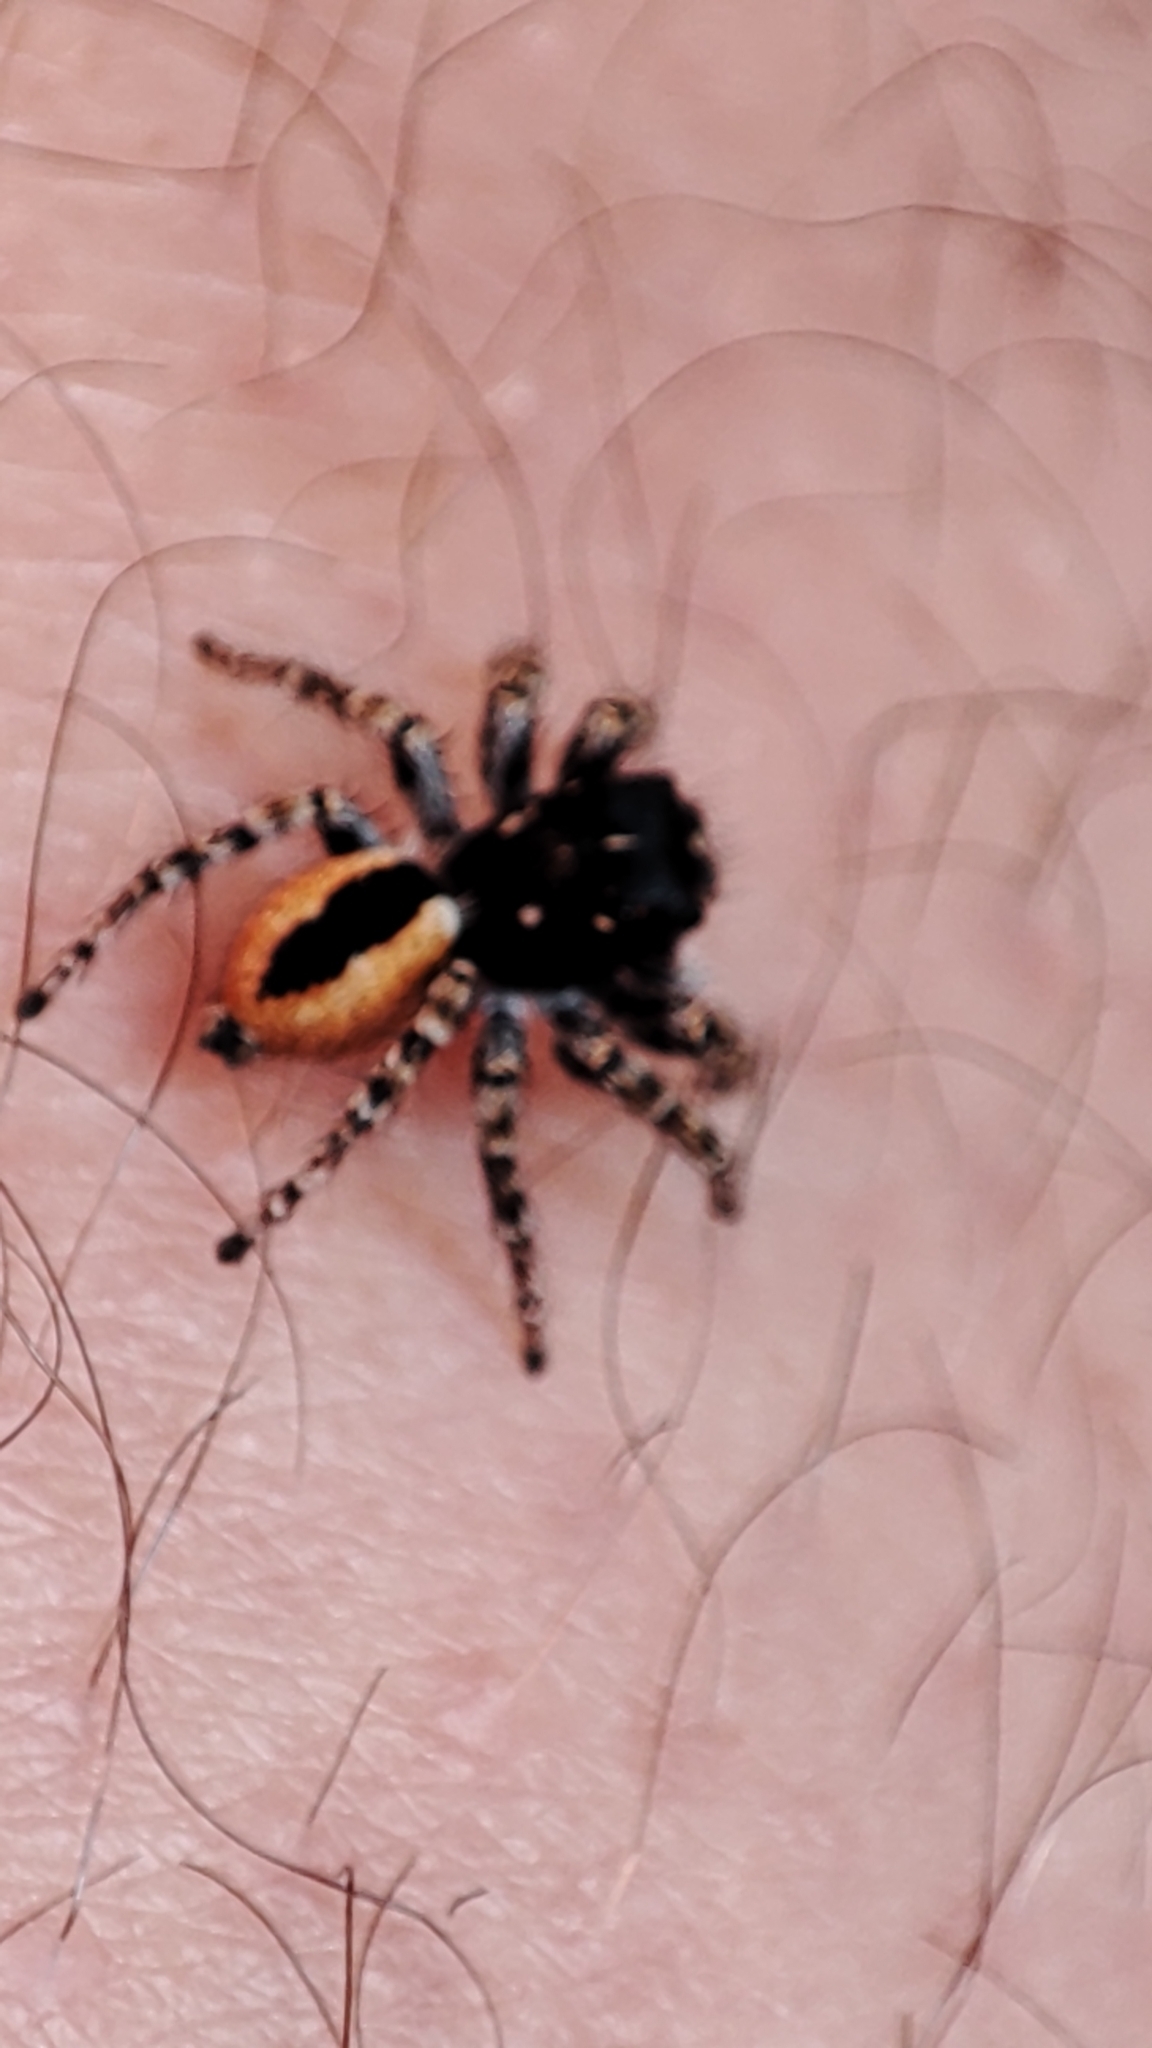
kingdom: Animalia
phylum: Arthropoda
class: Arachnida
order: Araneae
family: Salticidae
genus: Philaeus
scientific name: Philaeus chrysops
